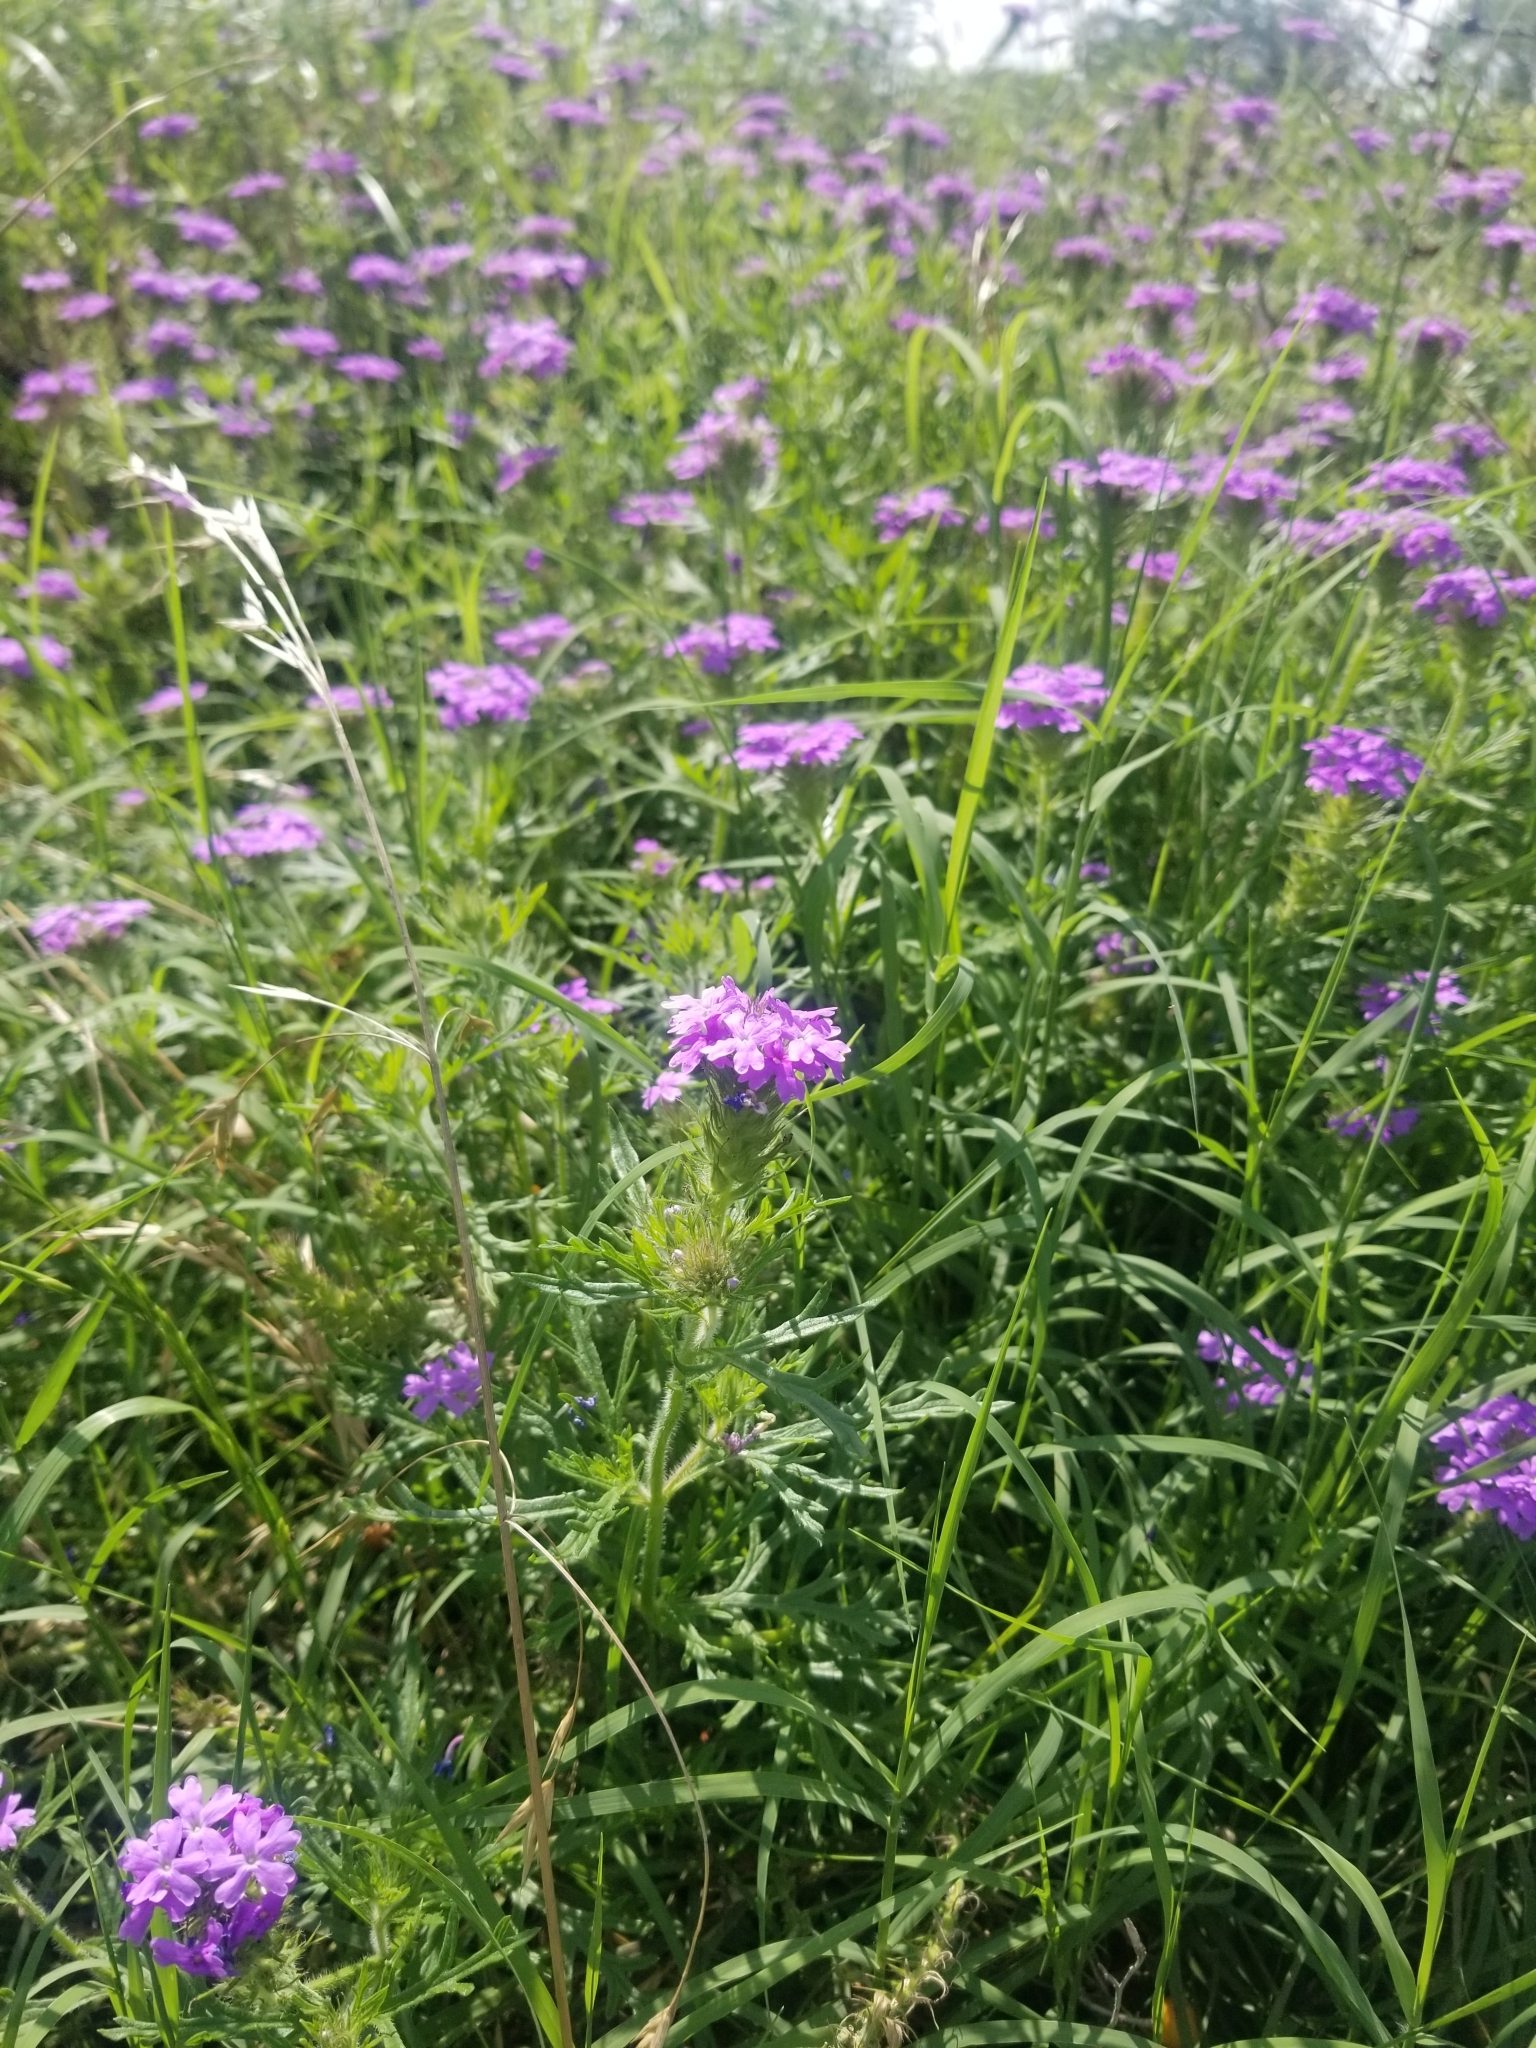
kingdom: Plantae
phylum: Tracheophyta
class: Magnoliopsida
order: Lamiales
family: Verbenaceae
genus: Verbena
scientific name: Verbena bipinnatifida
